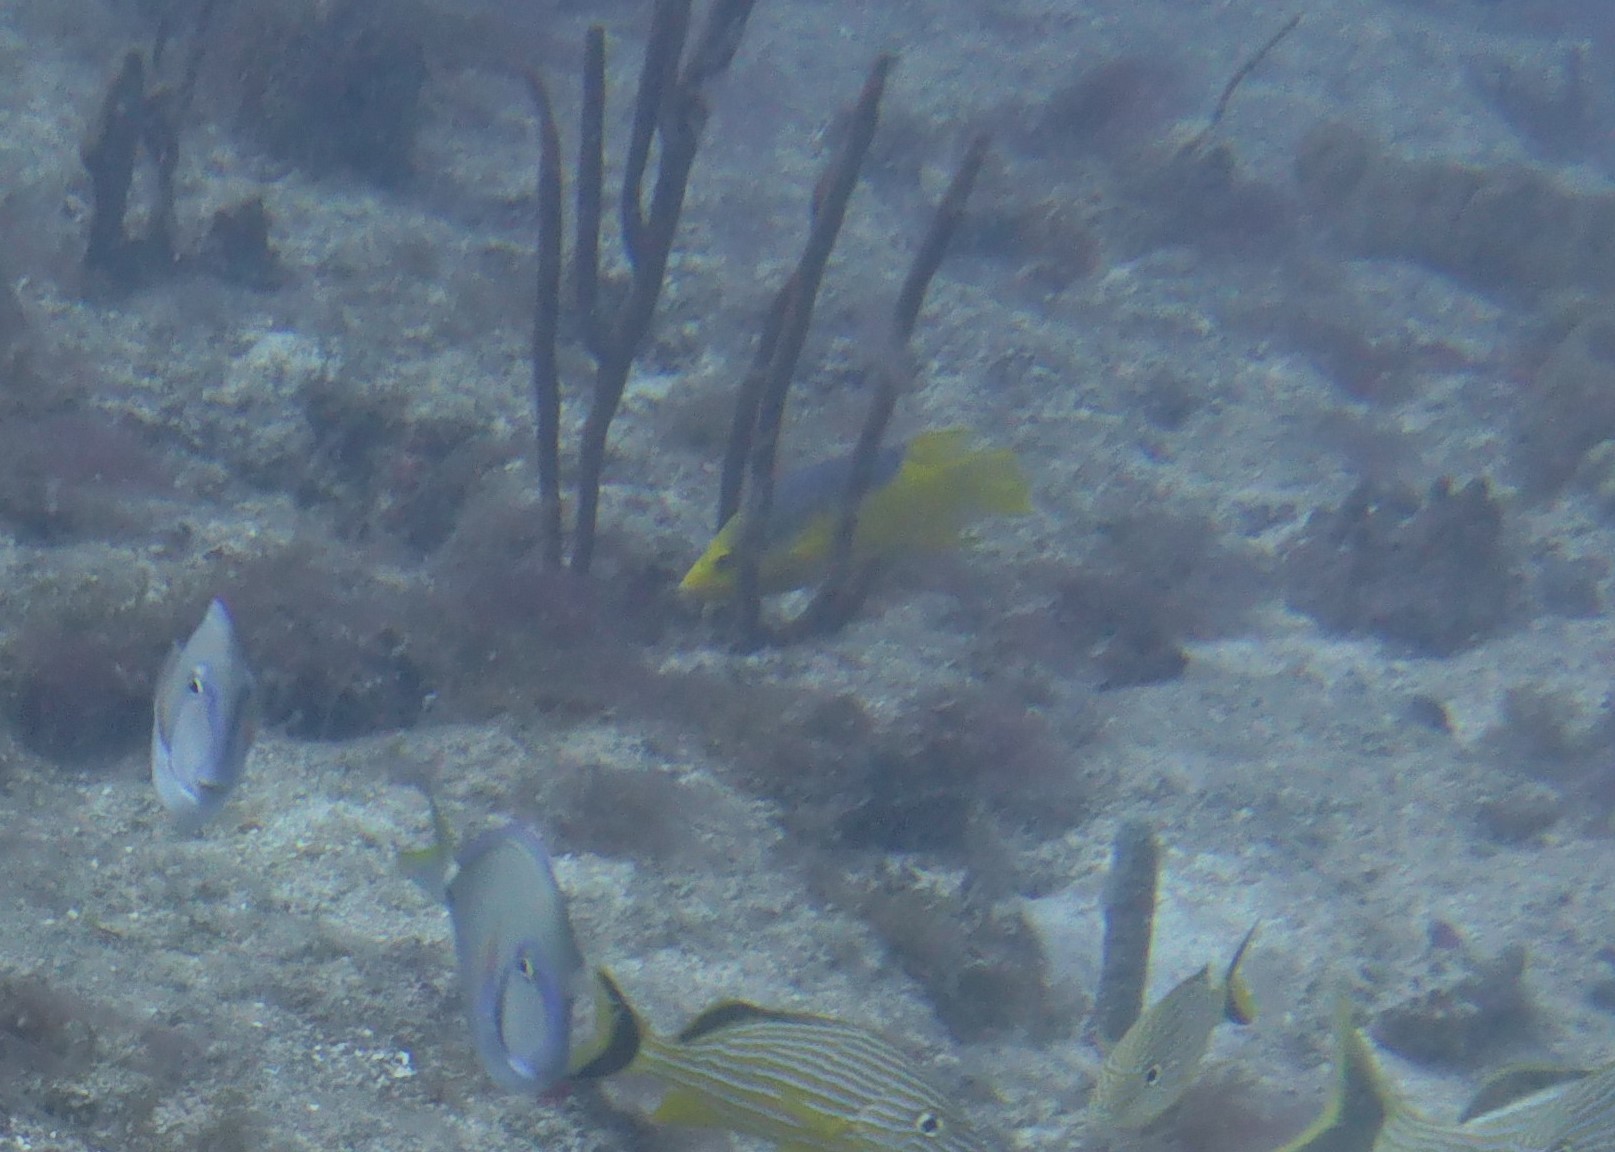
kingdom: Animalia
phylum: Chordata
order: Perciformes
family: Labridae
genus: Bodianus
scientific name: Bodianus rufus
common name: Spanish hogfish
